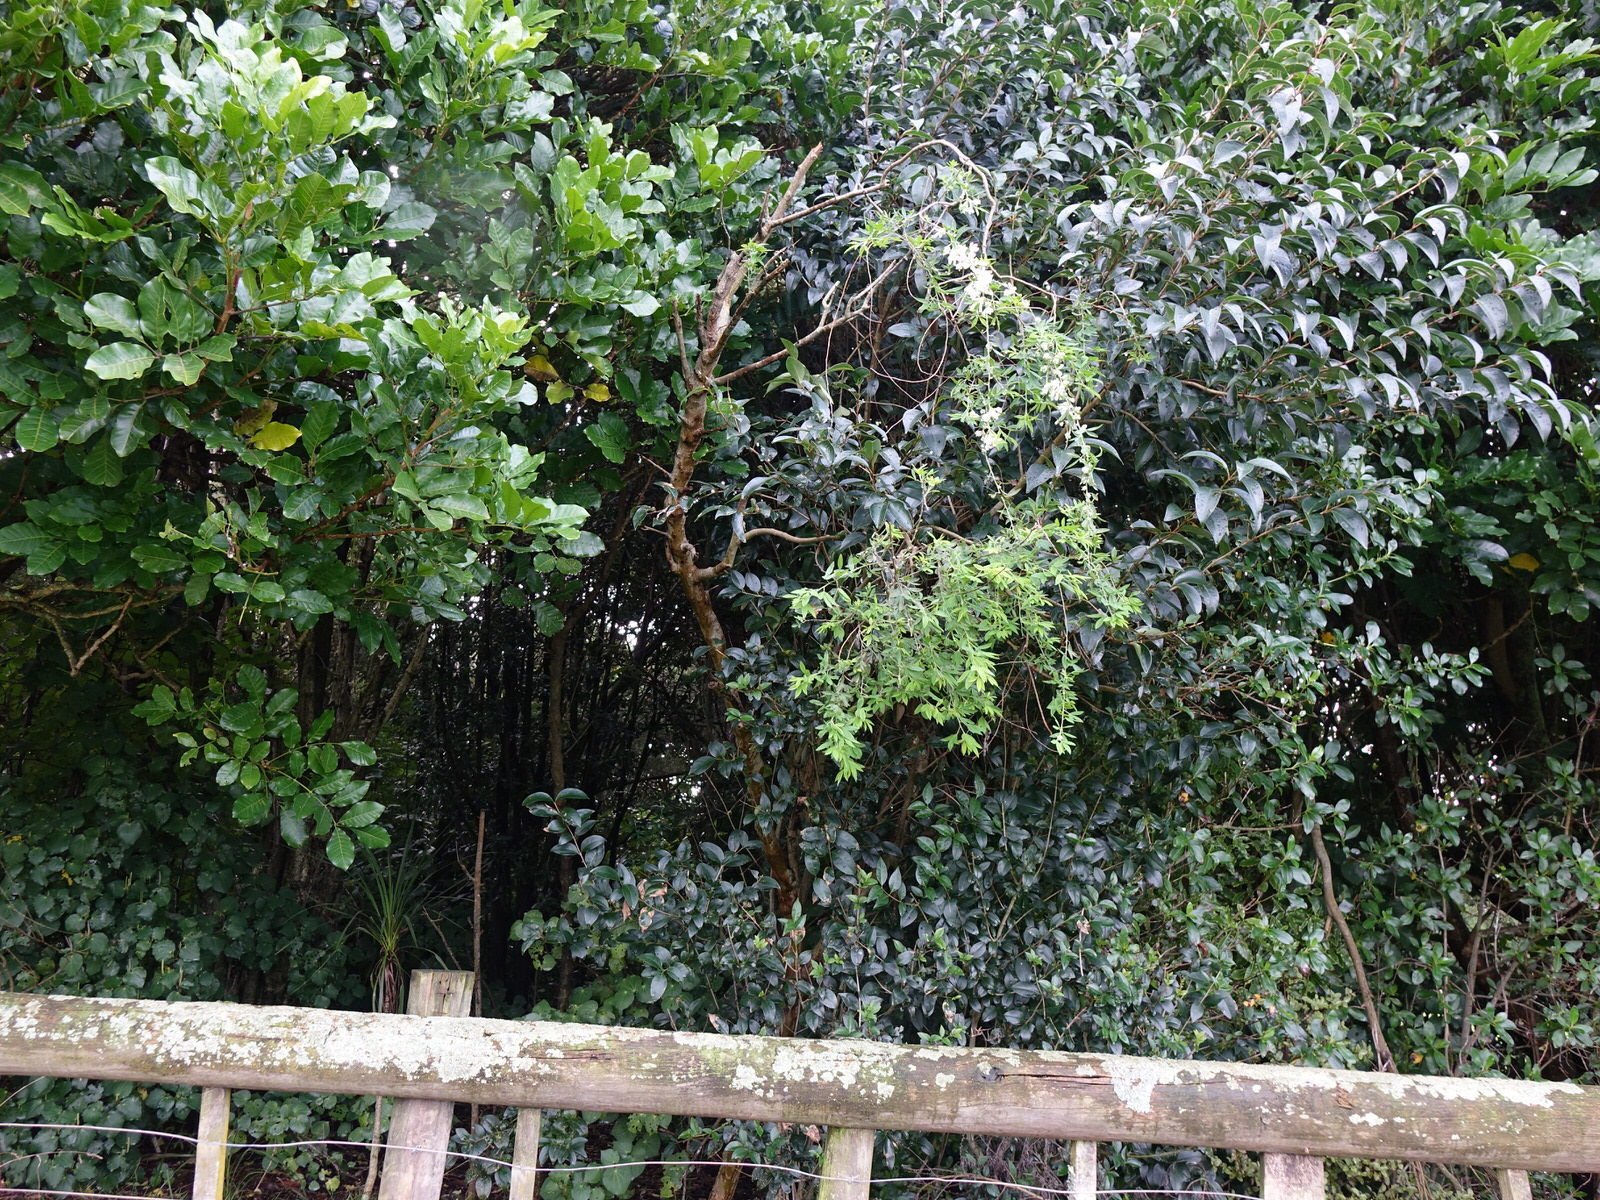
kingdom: Plantae
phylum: Tracheophyta
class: Magnoliopsida
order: Fabales
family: Fabaceae
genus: Chamaecytisus
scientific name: Chamaecytisus prolifer
